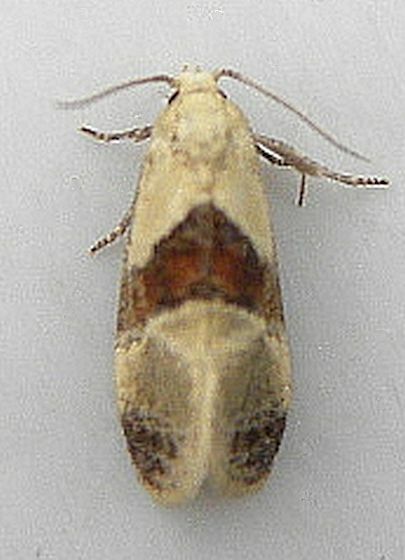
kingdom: Animalia
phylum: Arthropoda
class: Insecta
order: Lepidoptera
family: Tortricidae
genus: Phalonidia
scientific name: Phalonidia lepidana
